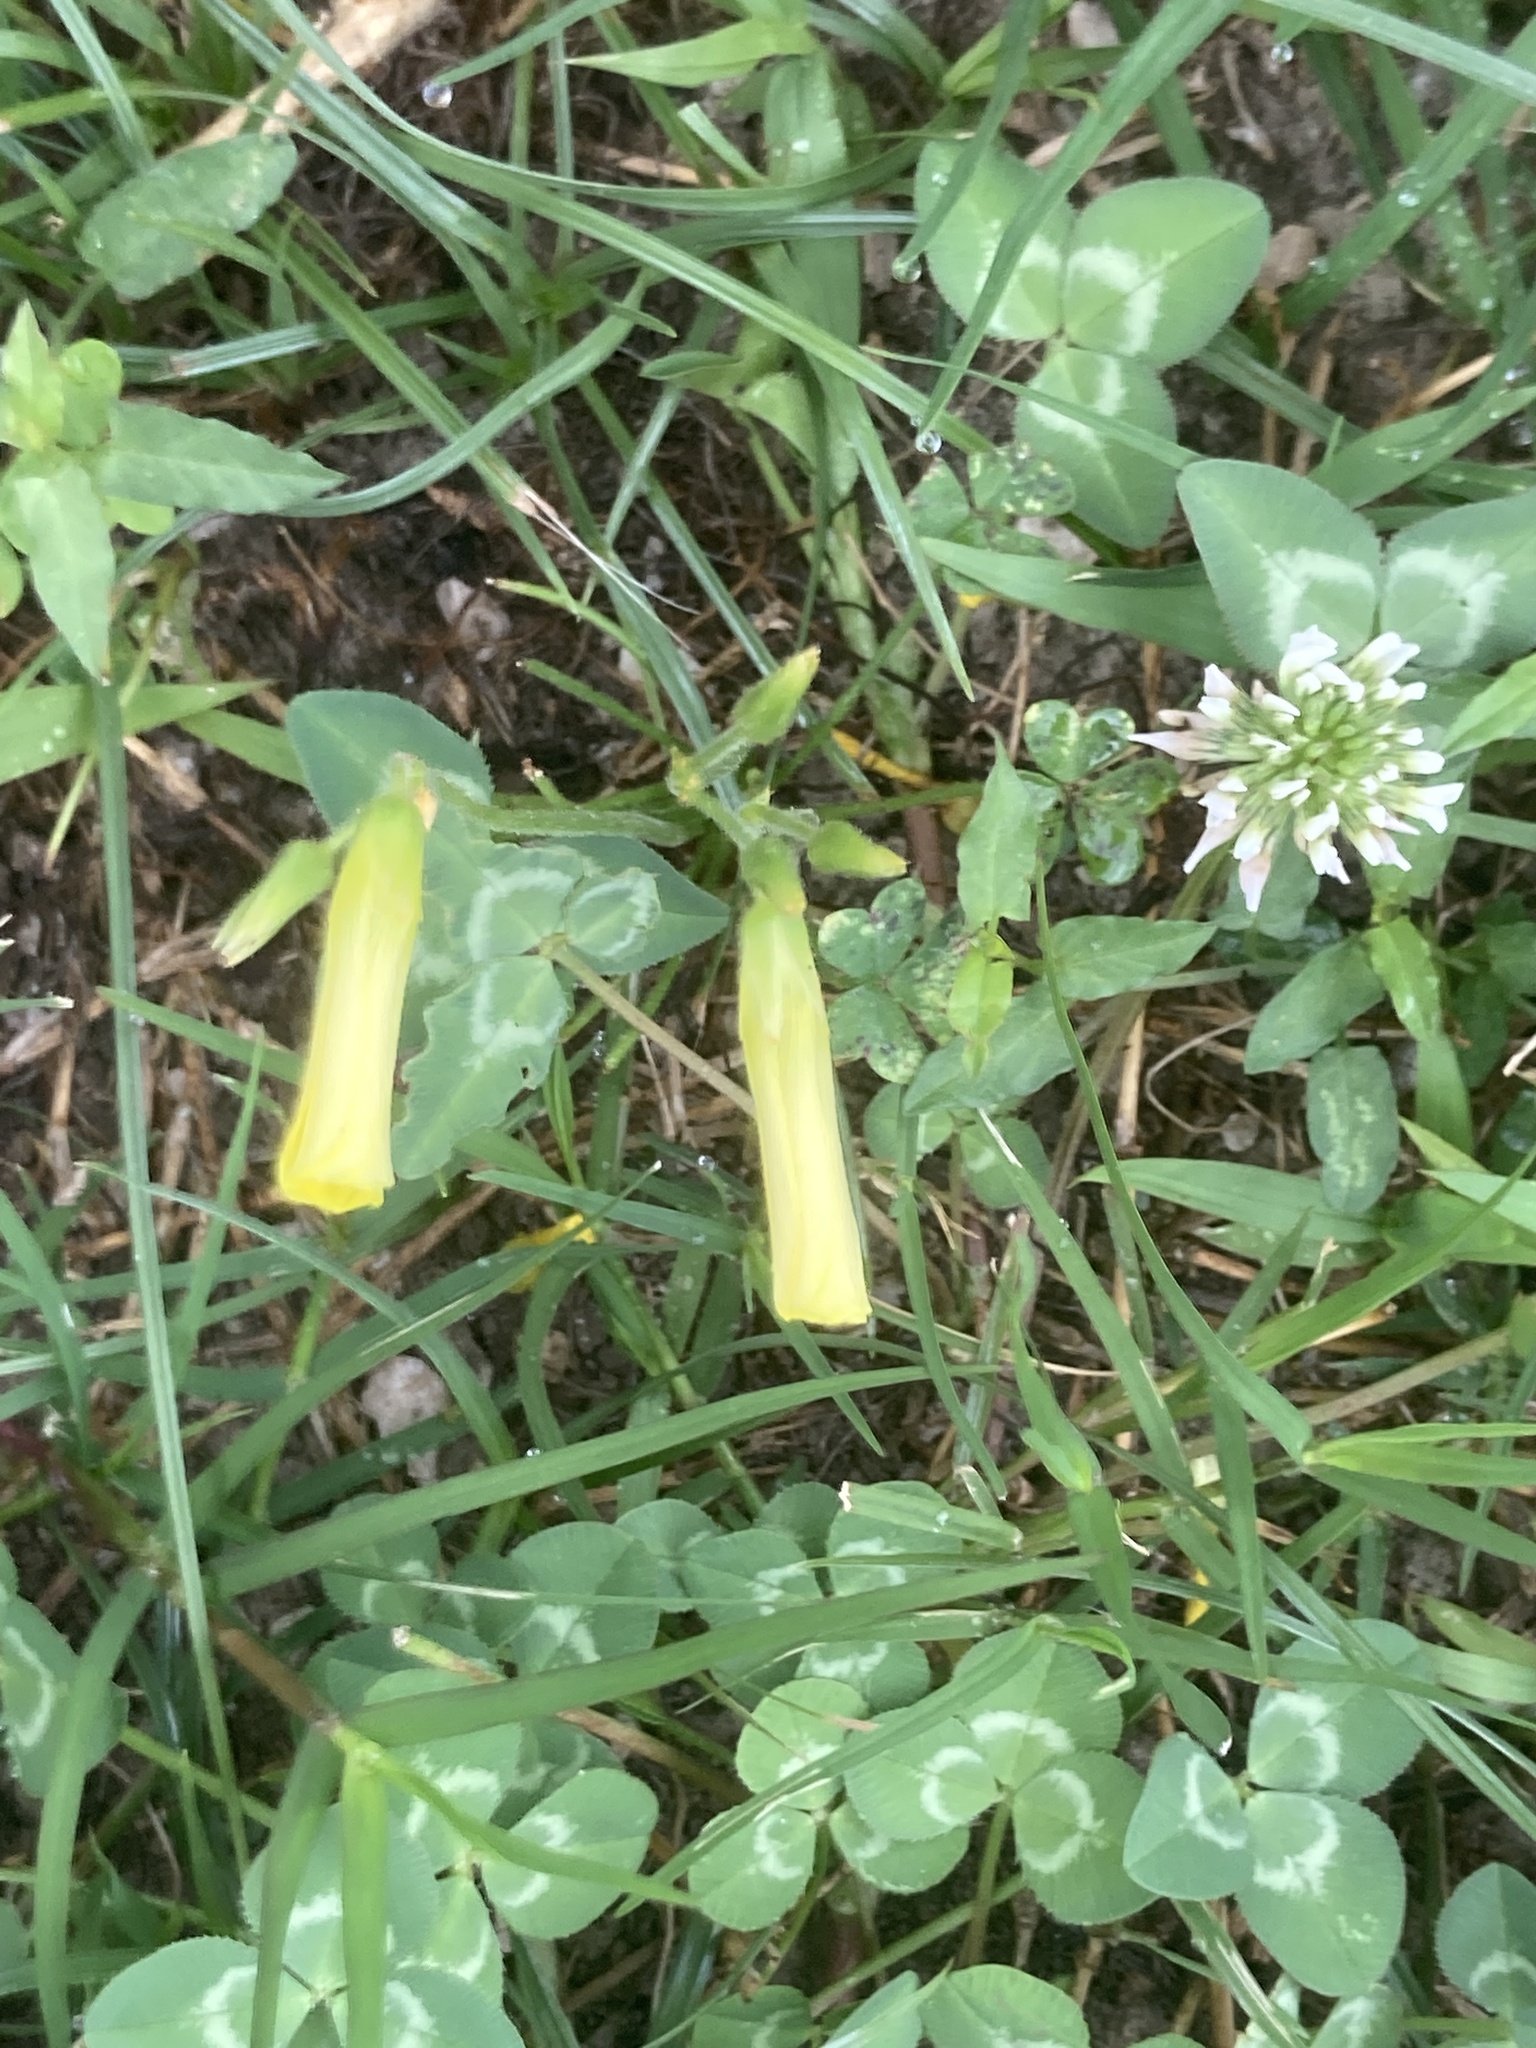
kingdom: Plantae
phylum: Tracheophyta
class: Magnoliopsida
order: Oxalidales
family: Oxalidaceae
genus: Oxalis
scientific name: Oxalis pes-caprae
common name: Bermuda-buttercup
